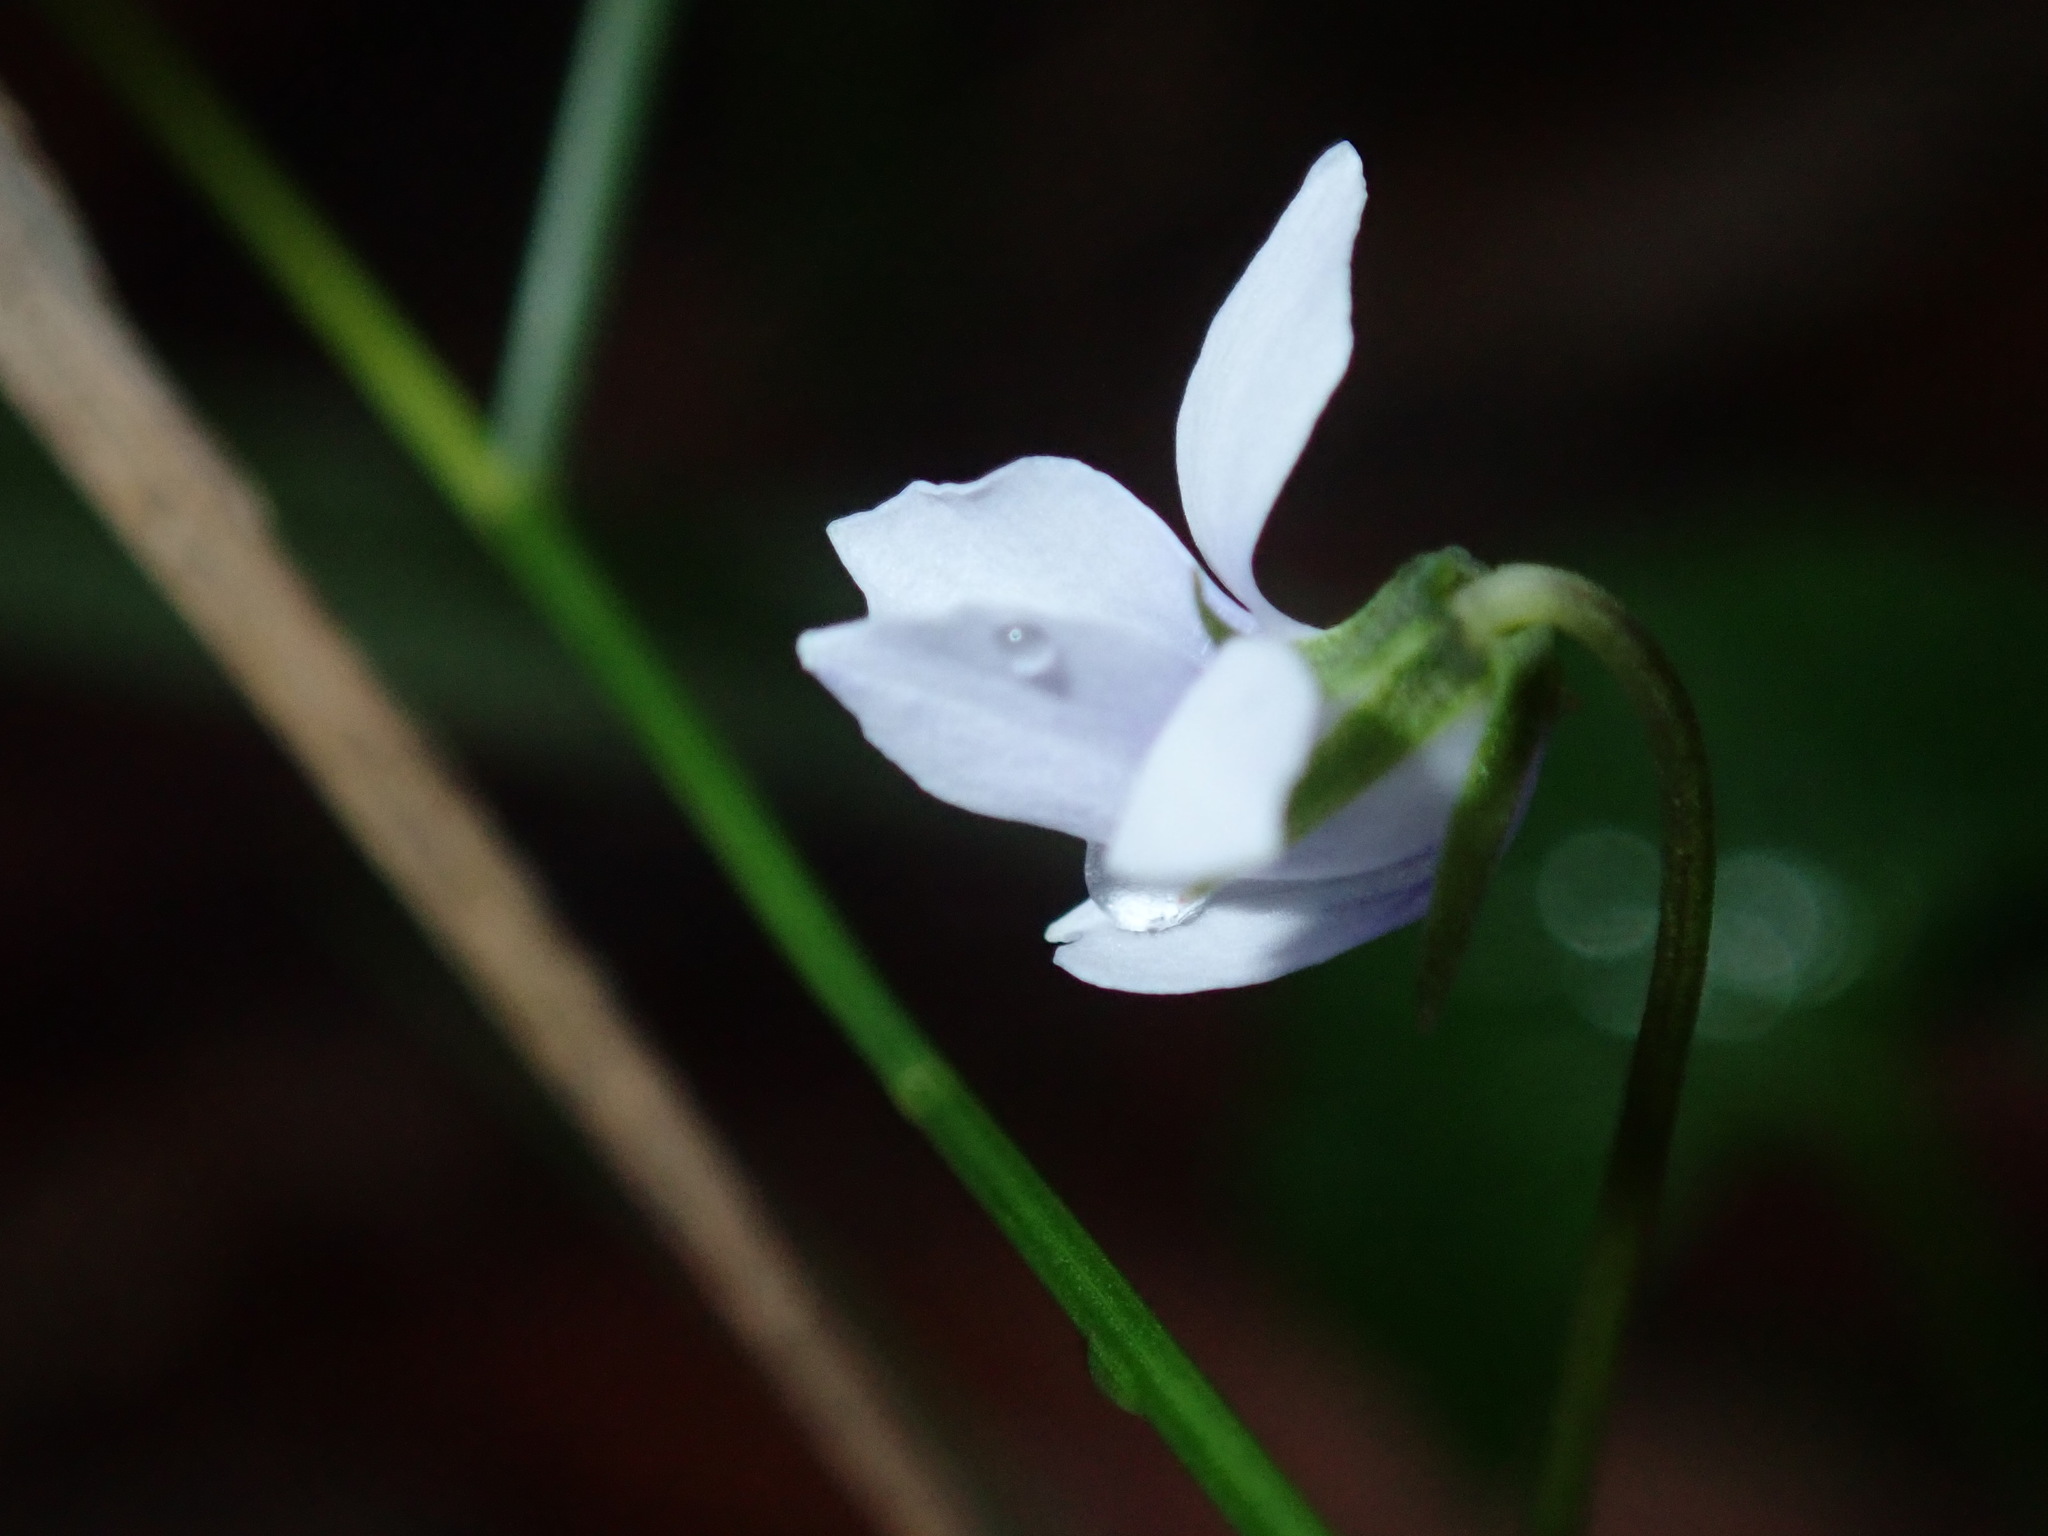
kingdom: Plantae
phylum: Tracheophyta
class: Magnoliopsida
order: Malpighiales
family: Violaceae
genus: Viola
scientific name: Viola silicestris
